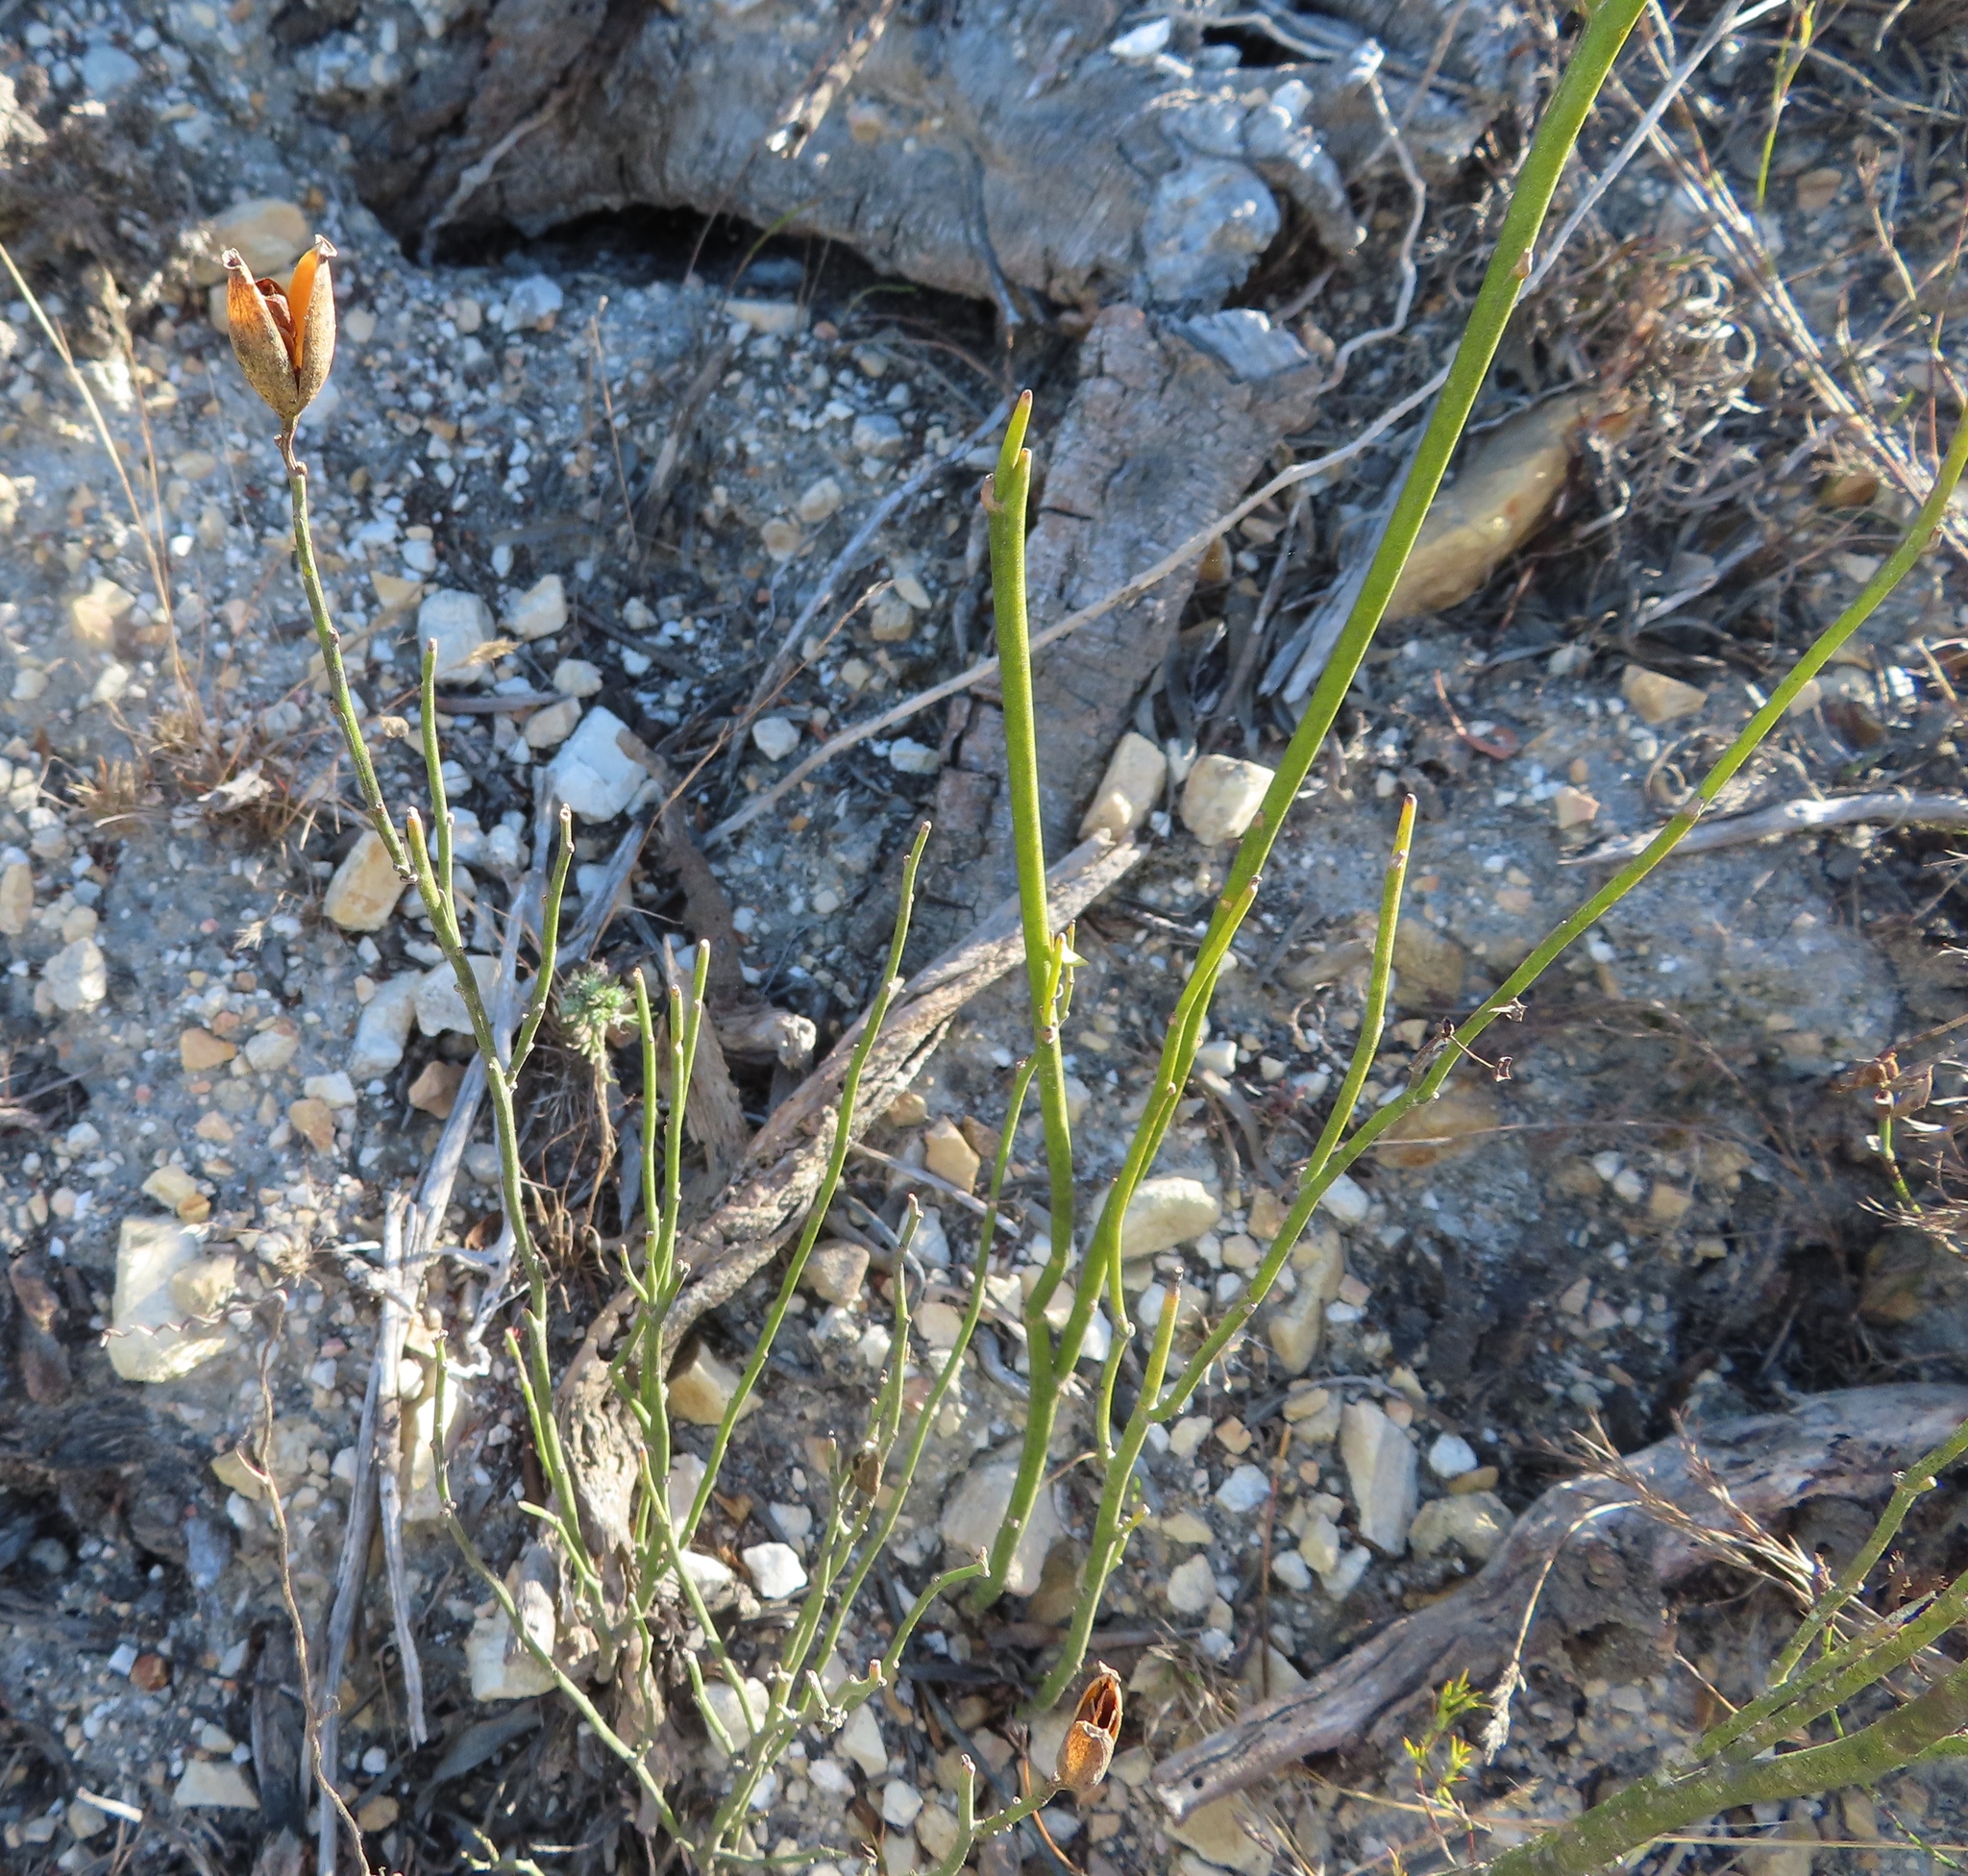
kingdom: Plantae
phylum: Tracheophyta
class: Magnoliopsida
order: Solanales
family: Montiniaceae
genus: Montinia
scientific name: Montinia caryophyllacea
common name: Wild clove-bush
